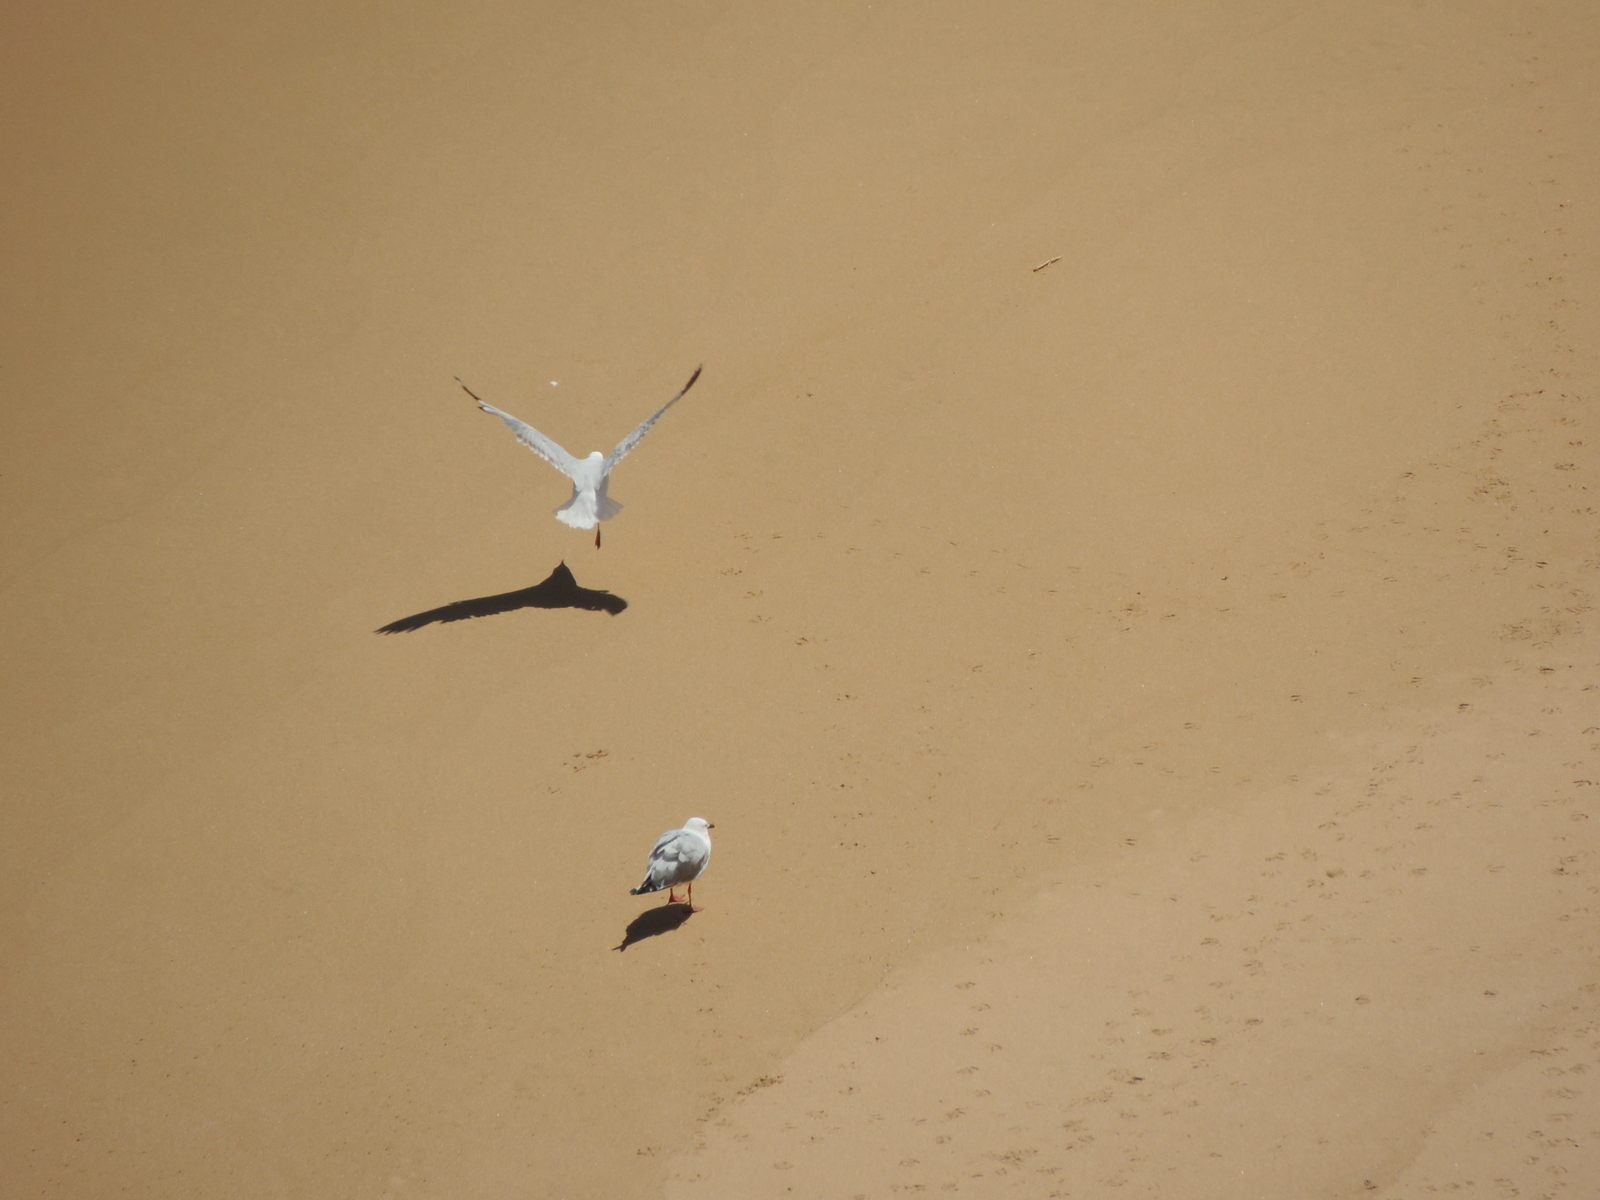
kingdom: Animalia
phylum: Chordata
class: Aves
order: Charadriiformes
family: Laridae
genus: Chroicocephalus
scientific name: Chroicocephalus novaehollandiae
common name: Silver gull
